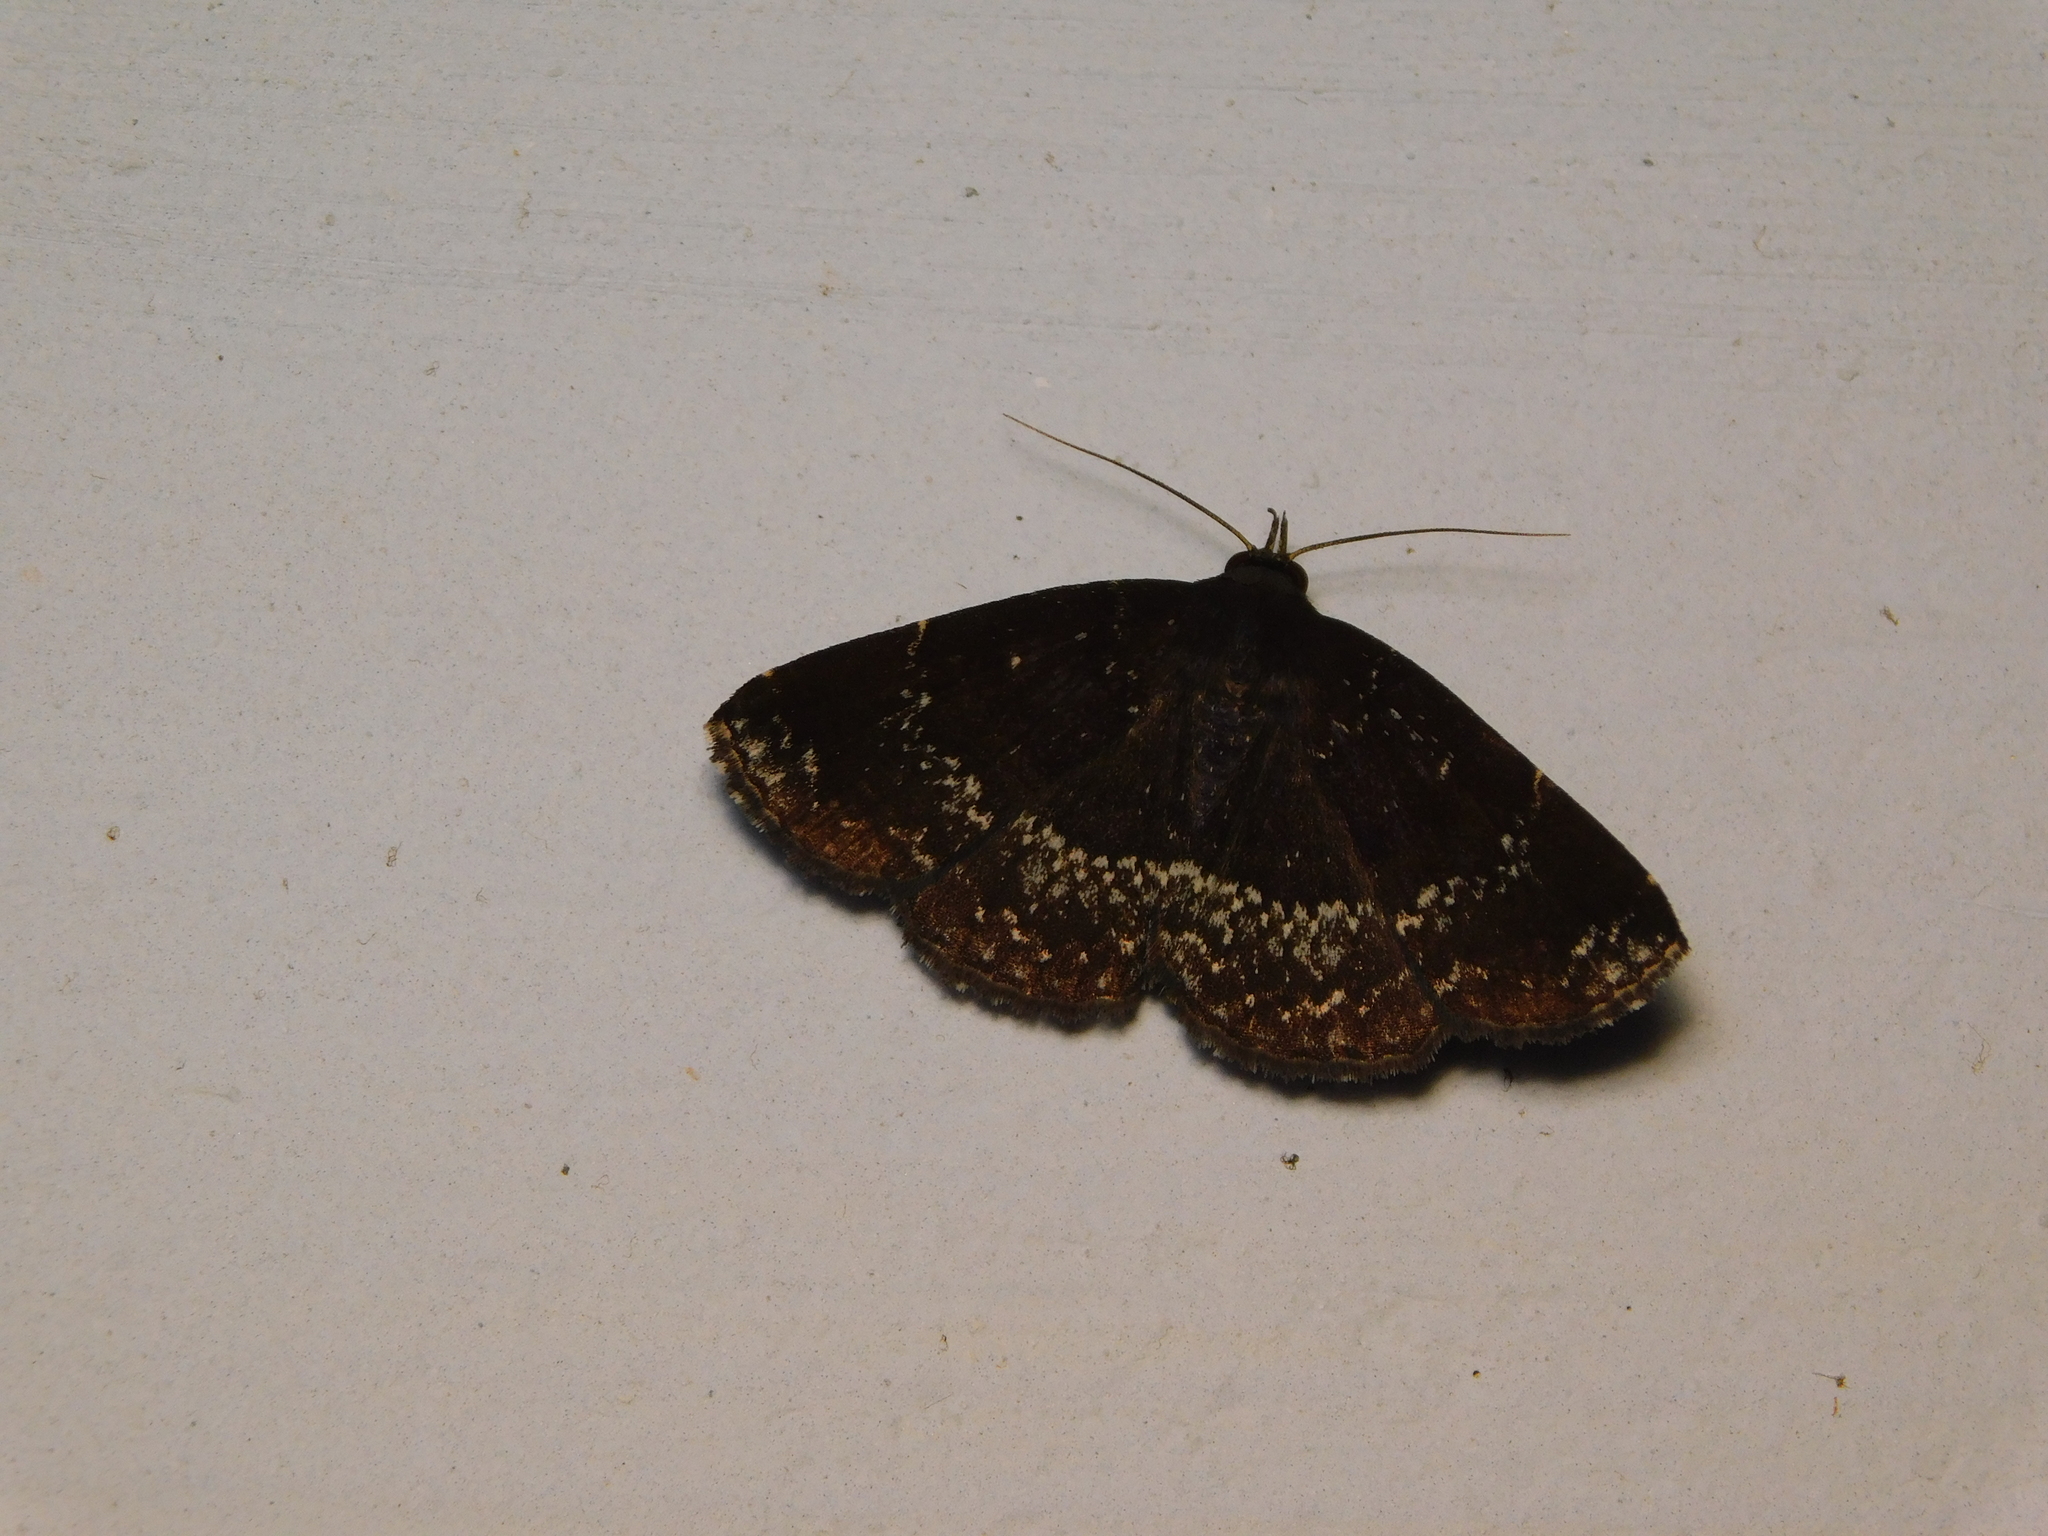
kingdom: Animalia
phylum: Arthropoda
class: Insecta
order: Lepidoptera
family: Erebidae
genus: Adrapsa
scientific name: Adrapsa geometroides
